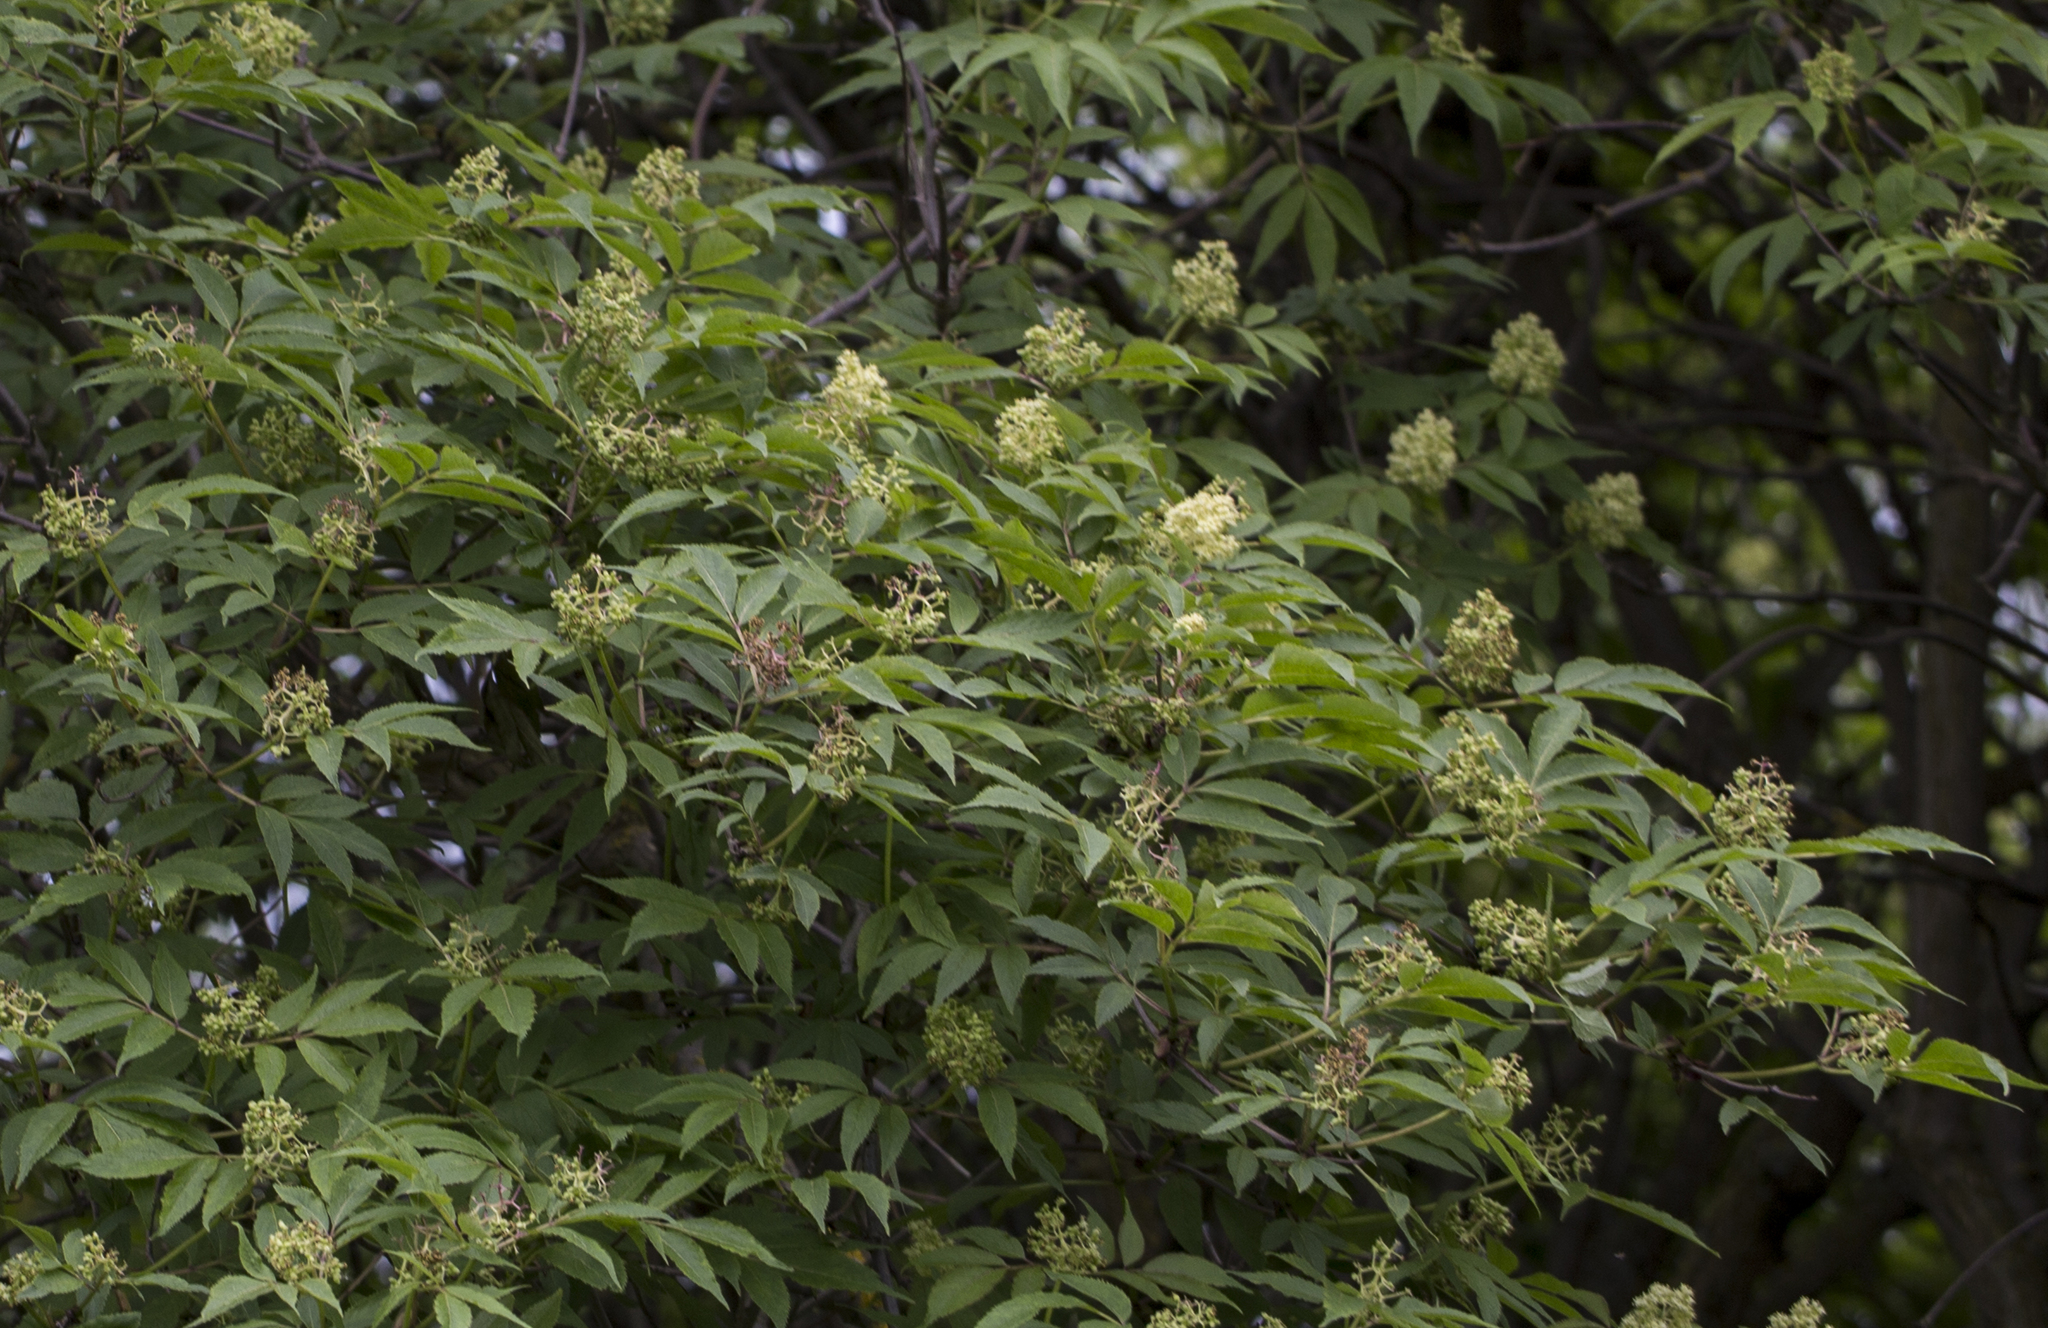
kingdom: Plantae
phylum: Tracheophyta
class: Magnoliopsida
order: Dipsacales
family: Viburnaceae
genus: Sambucus
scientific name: Sambucus racemosa
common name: Red-berried elder
